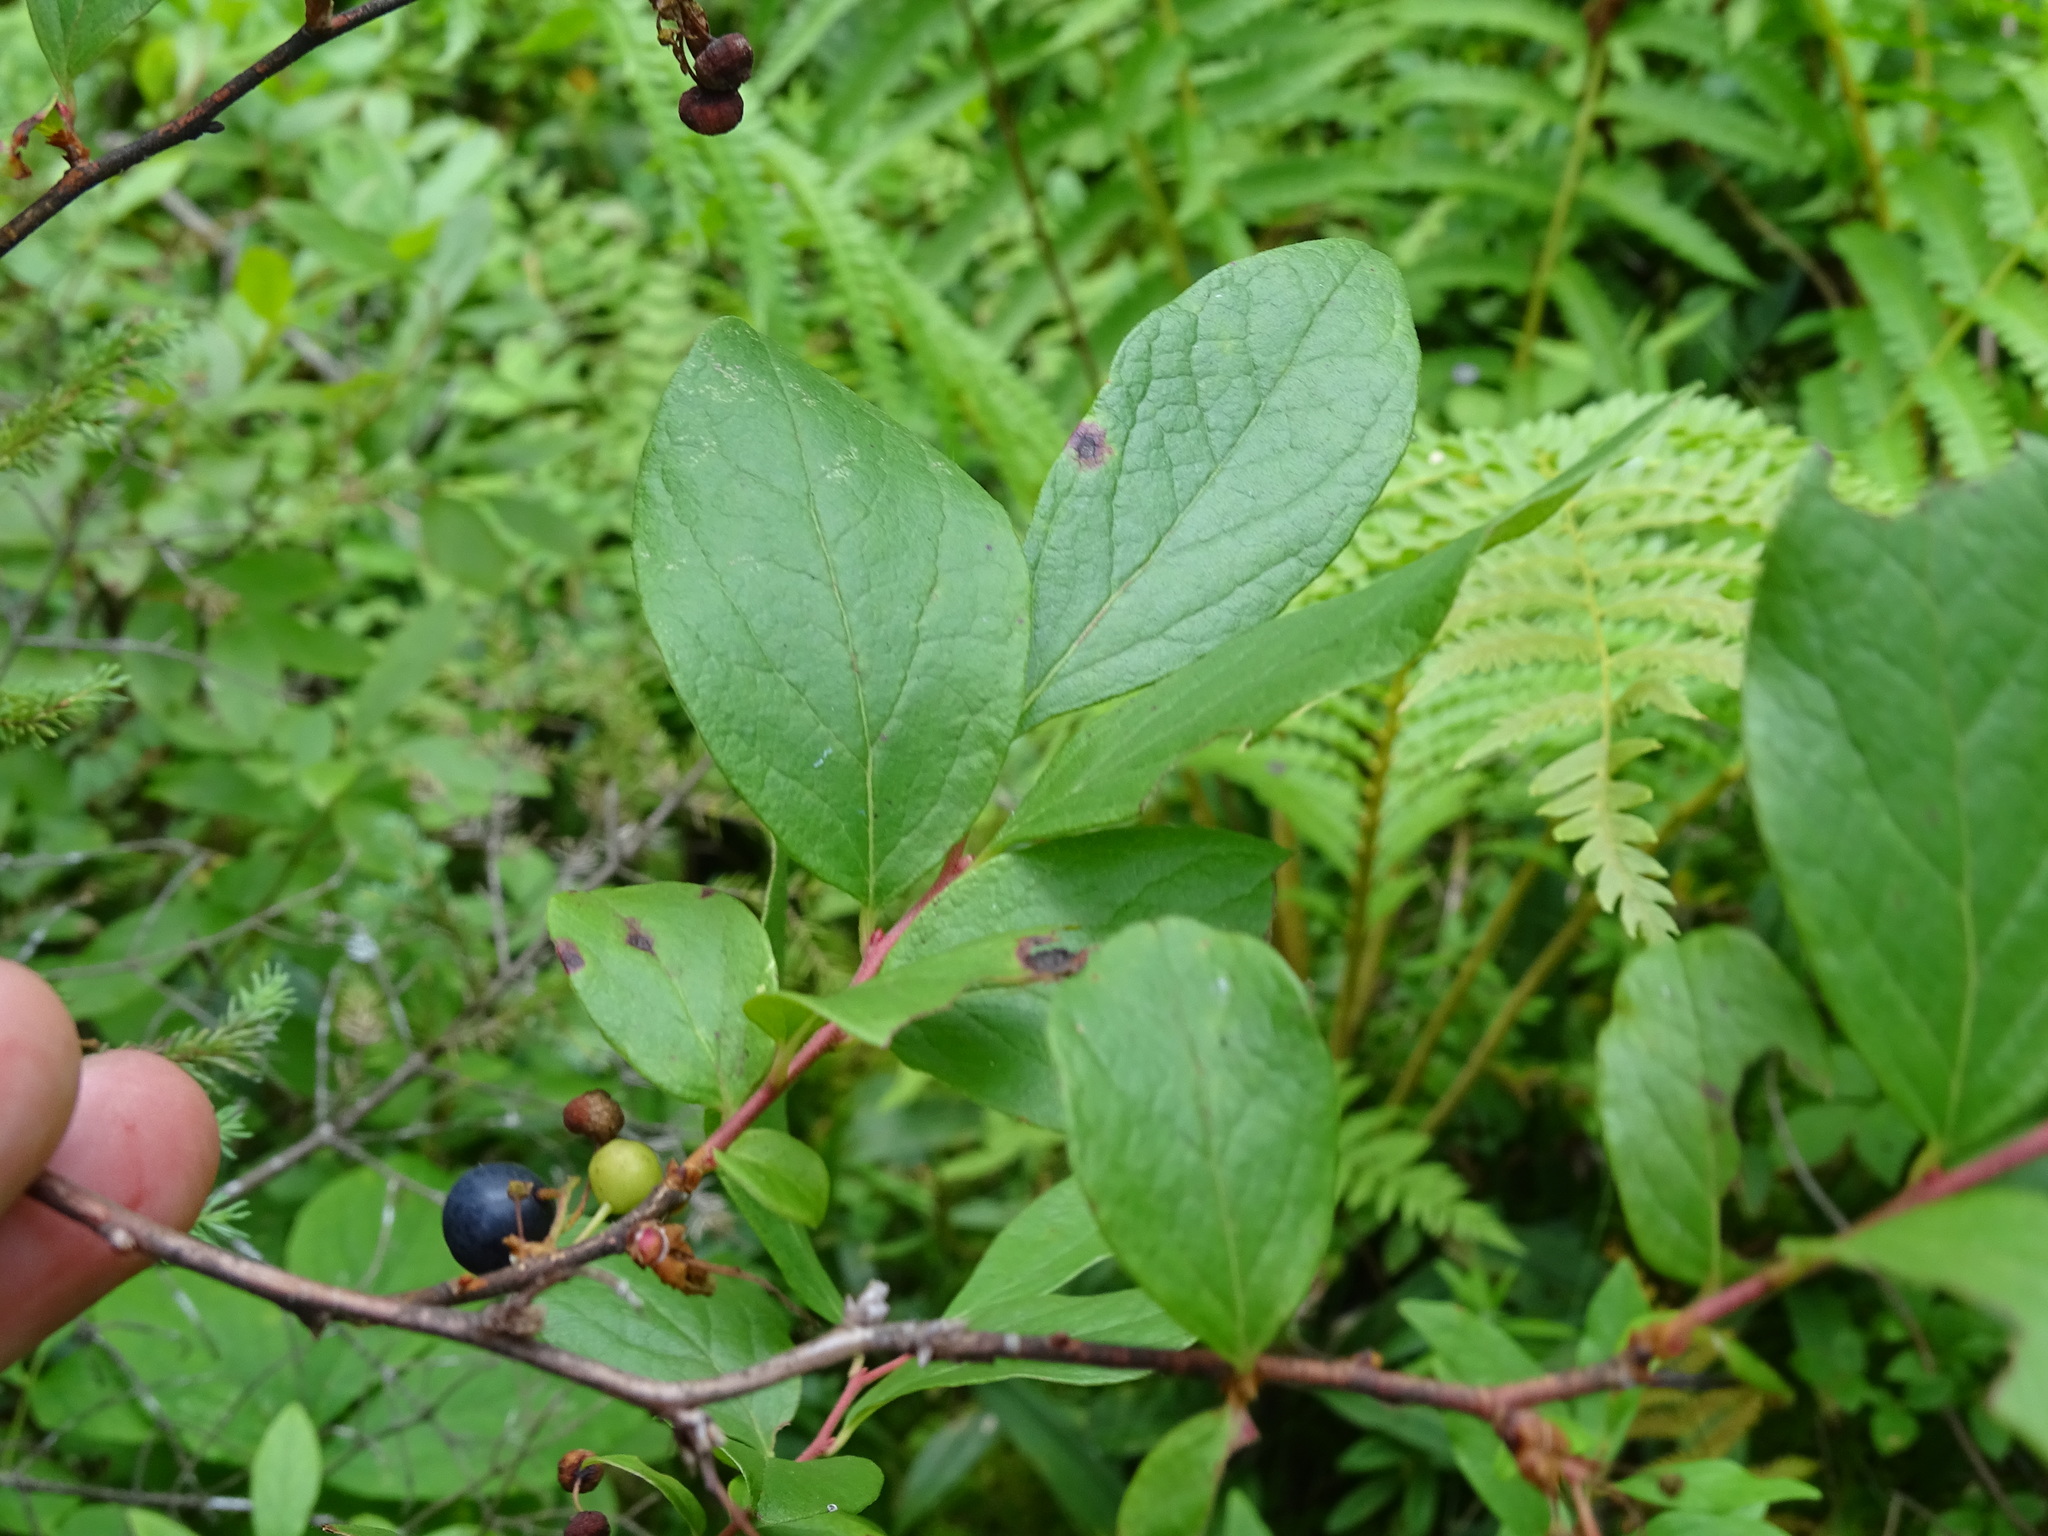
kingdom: Plantae
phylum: Tracheophyta
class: Magnoliopsida
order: Ericales
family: Ericaceae
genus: Gaylussacia
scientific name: Gaylussacia baccata
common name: Black huckleberry
